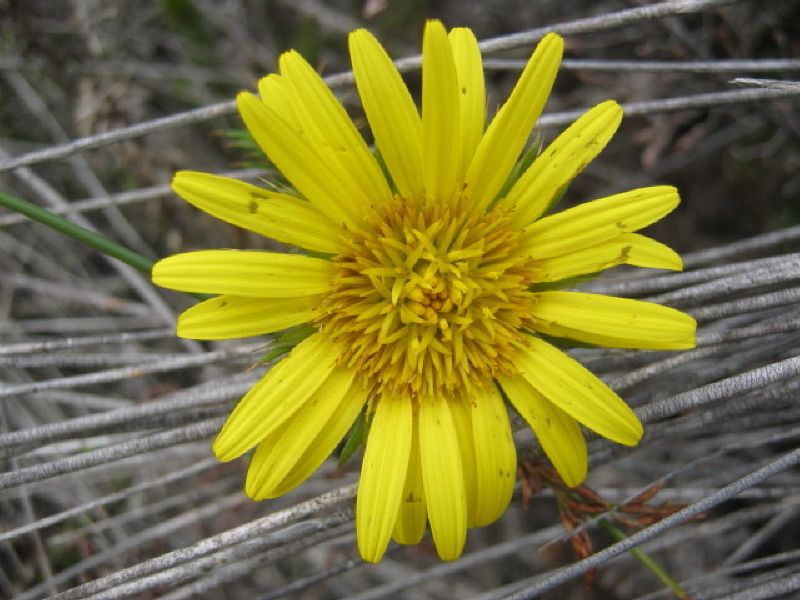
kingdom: Plantae
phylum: Tracheophyta
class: Magnoliopsida
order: Asterales
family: Asteraceae
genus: Cullumia
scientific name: Cullumia carlinoides
